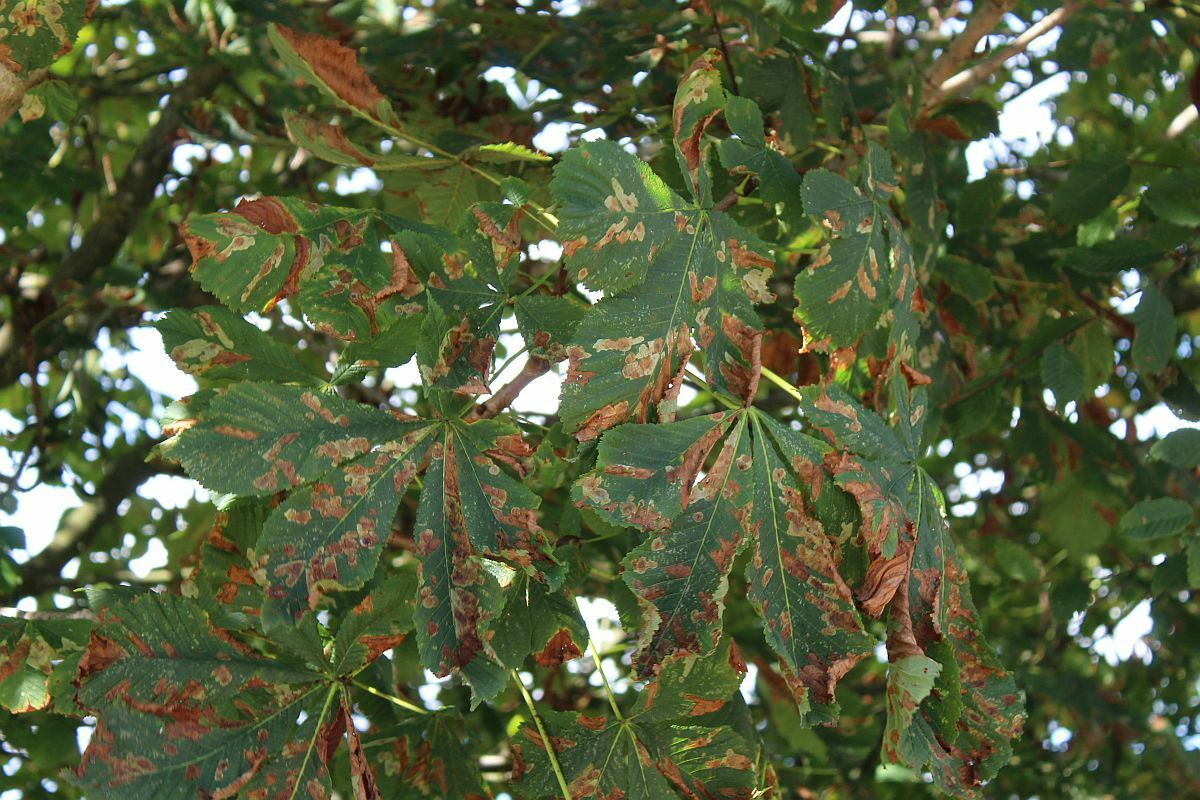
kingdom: Animalia
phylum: Arthropoda
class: Insecta
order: Lepidoptera
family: Gracillariidae
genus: Cameraria
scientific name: Cameraria ohridella
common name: Horse-chestnut leaf-miner
